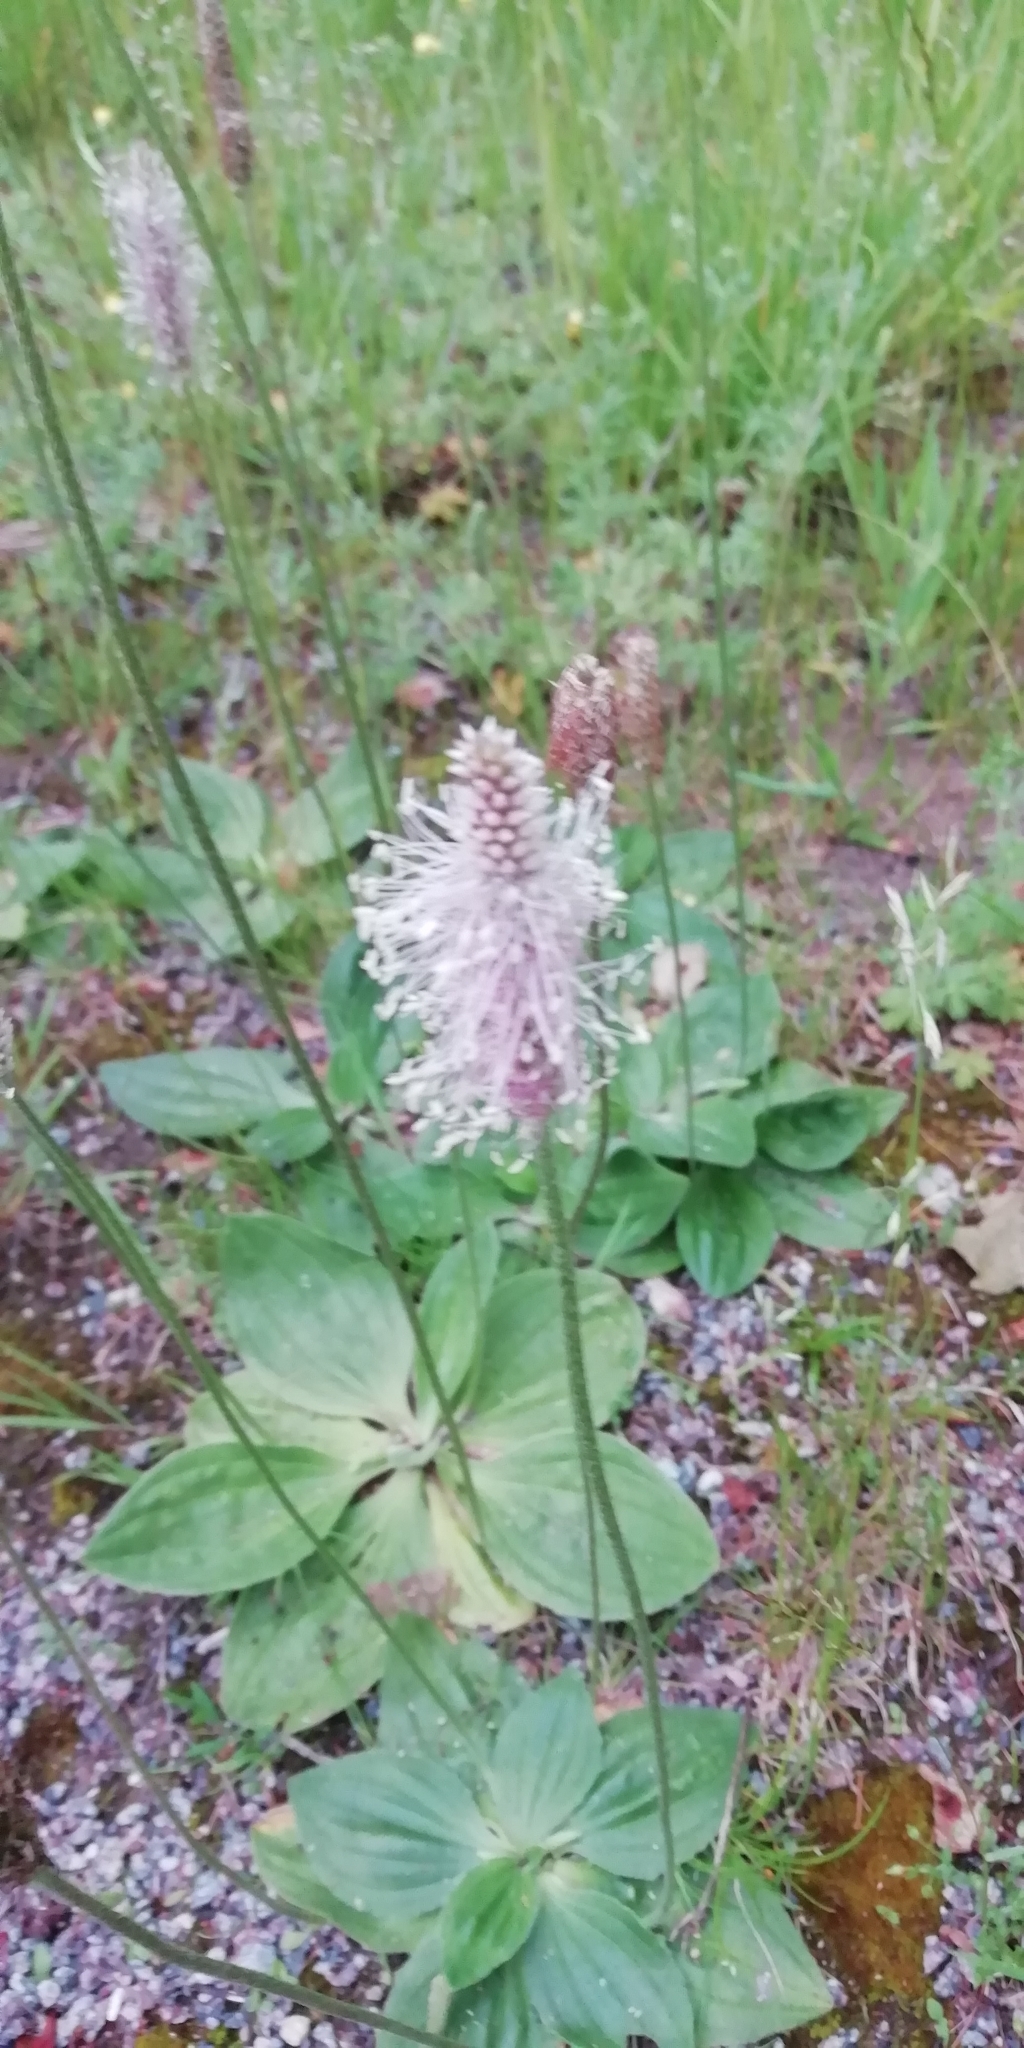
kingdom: Plantae
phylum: Tracheophyta
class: Magnoliopsida
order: Lamiales
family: Plantaginaceae
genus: Plantago
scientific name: Plantago media
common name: Hoary plantain
